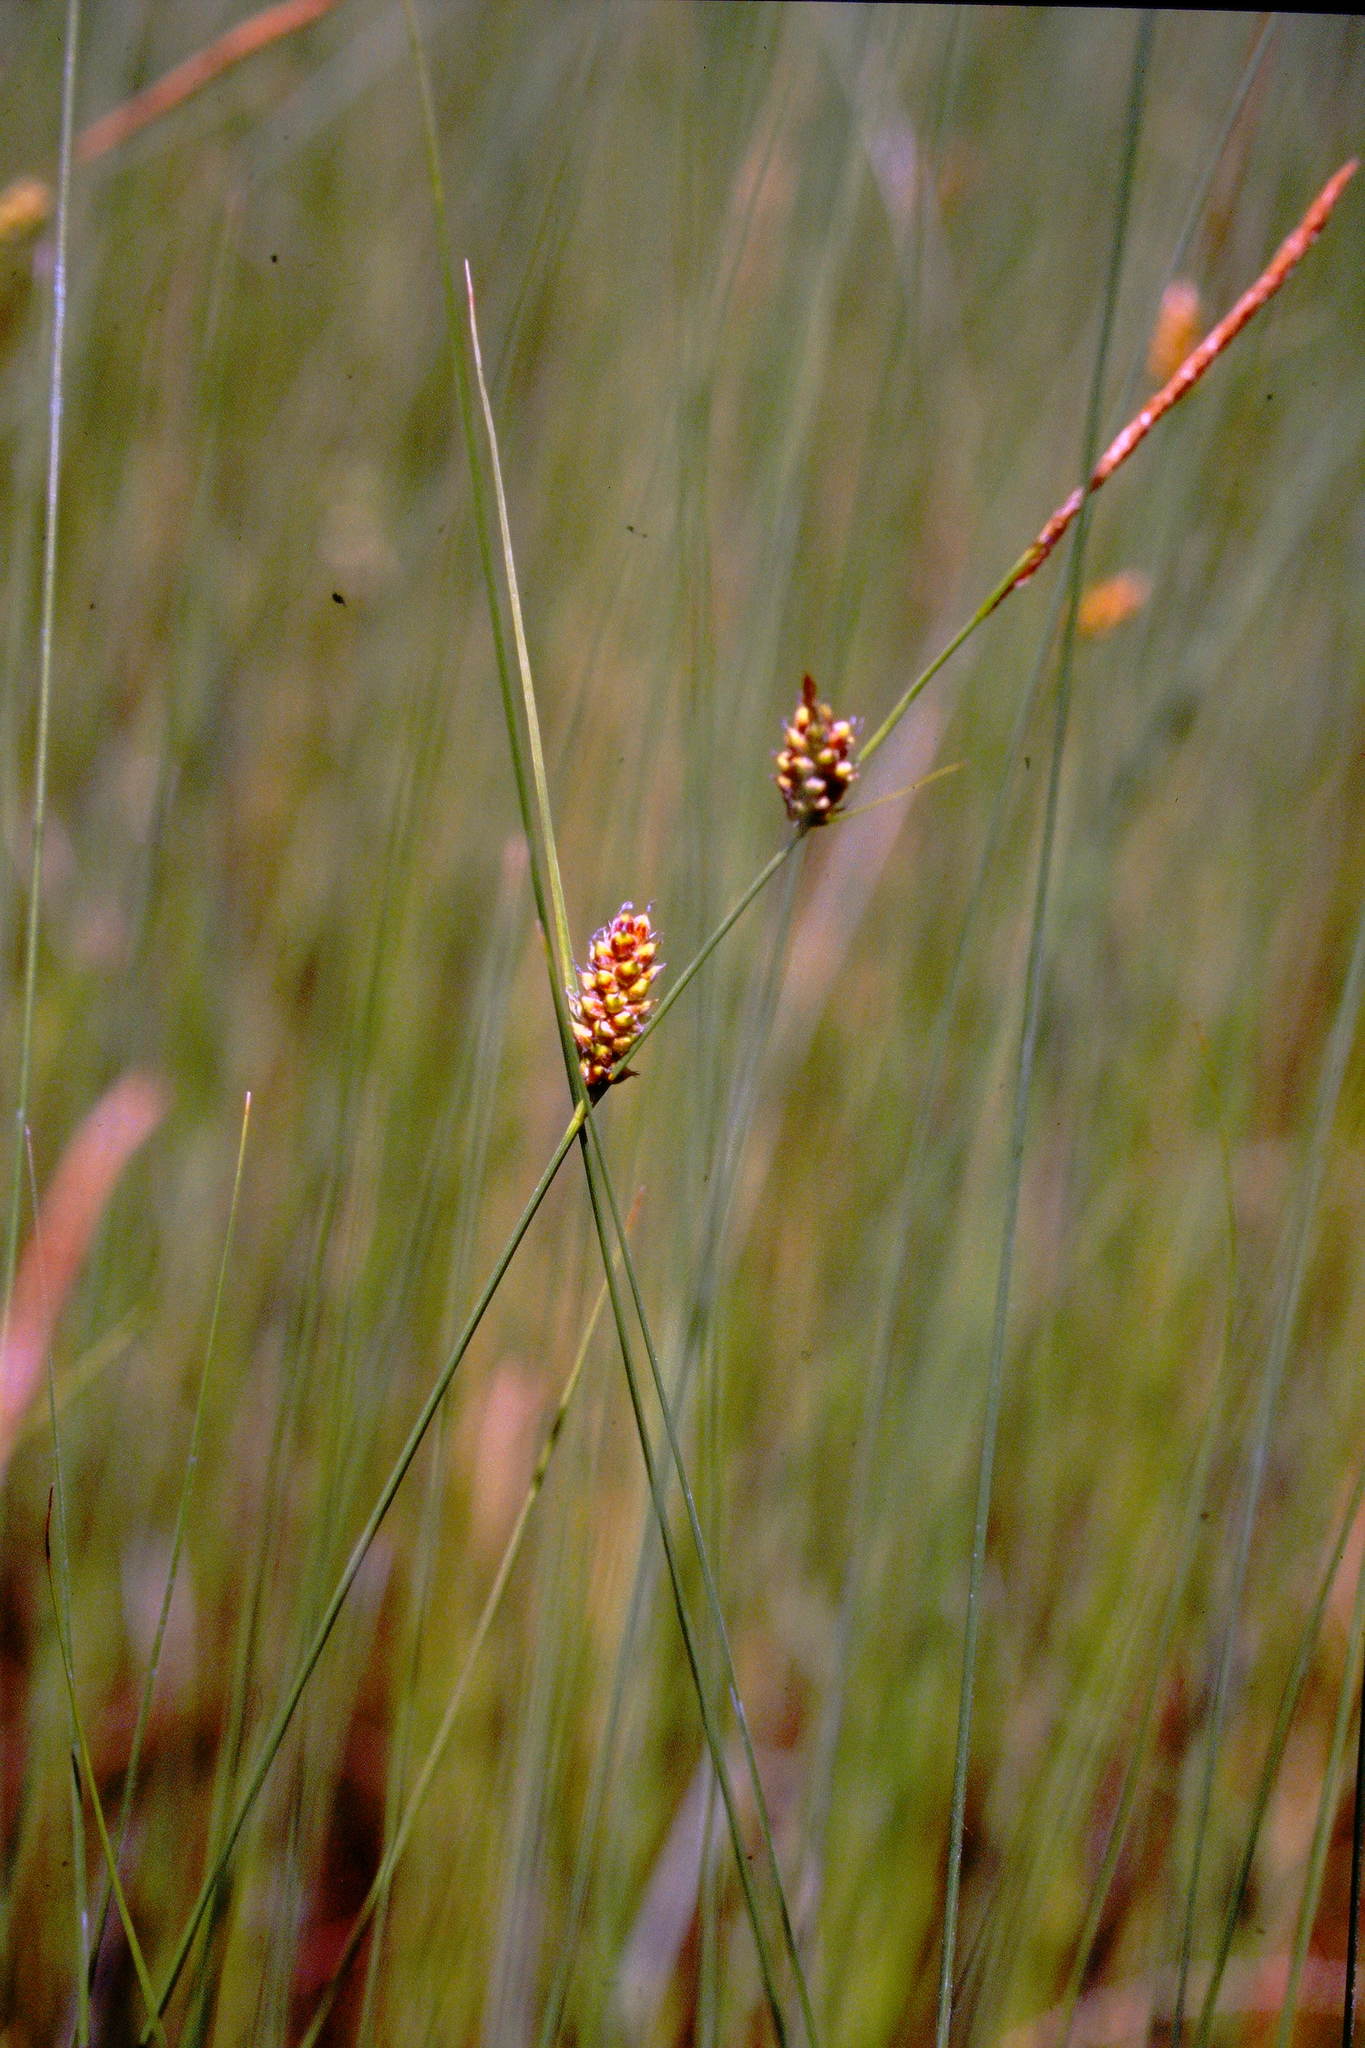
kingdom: Plantae
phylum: Tracheophyta
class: Liliopsida
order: Poales
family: Cyperaceae
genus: Carex
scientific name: Carex lasiocarpa
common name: Slender sedge
